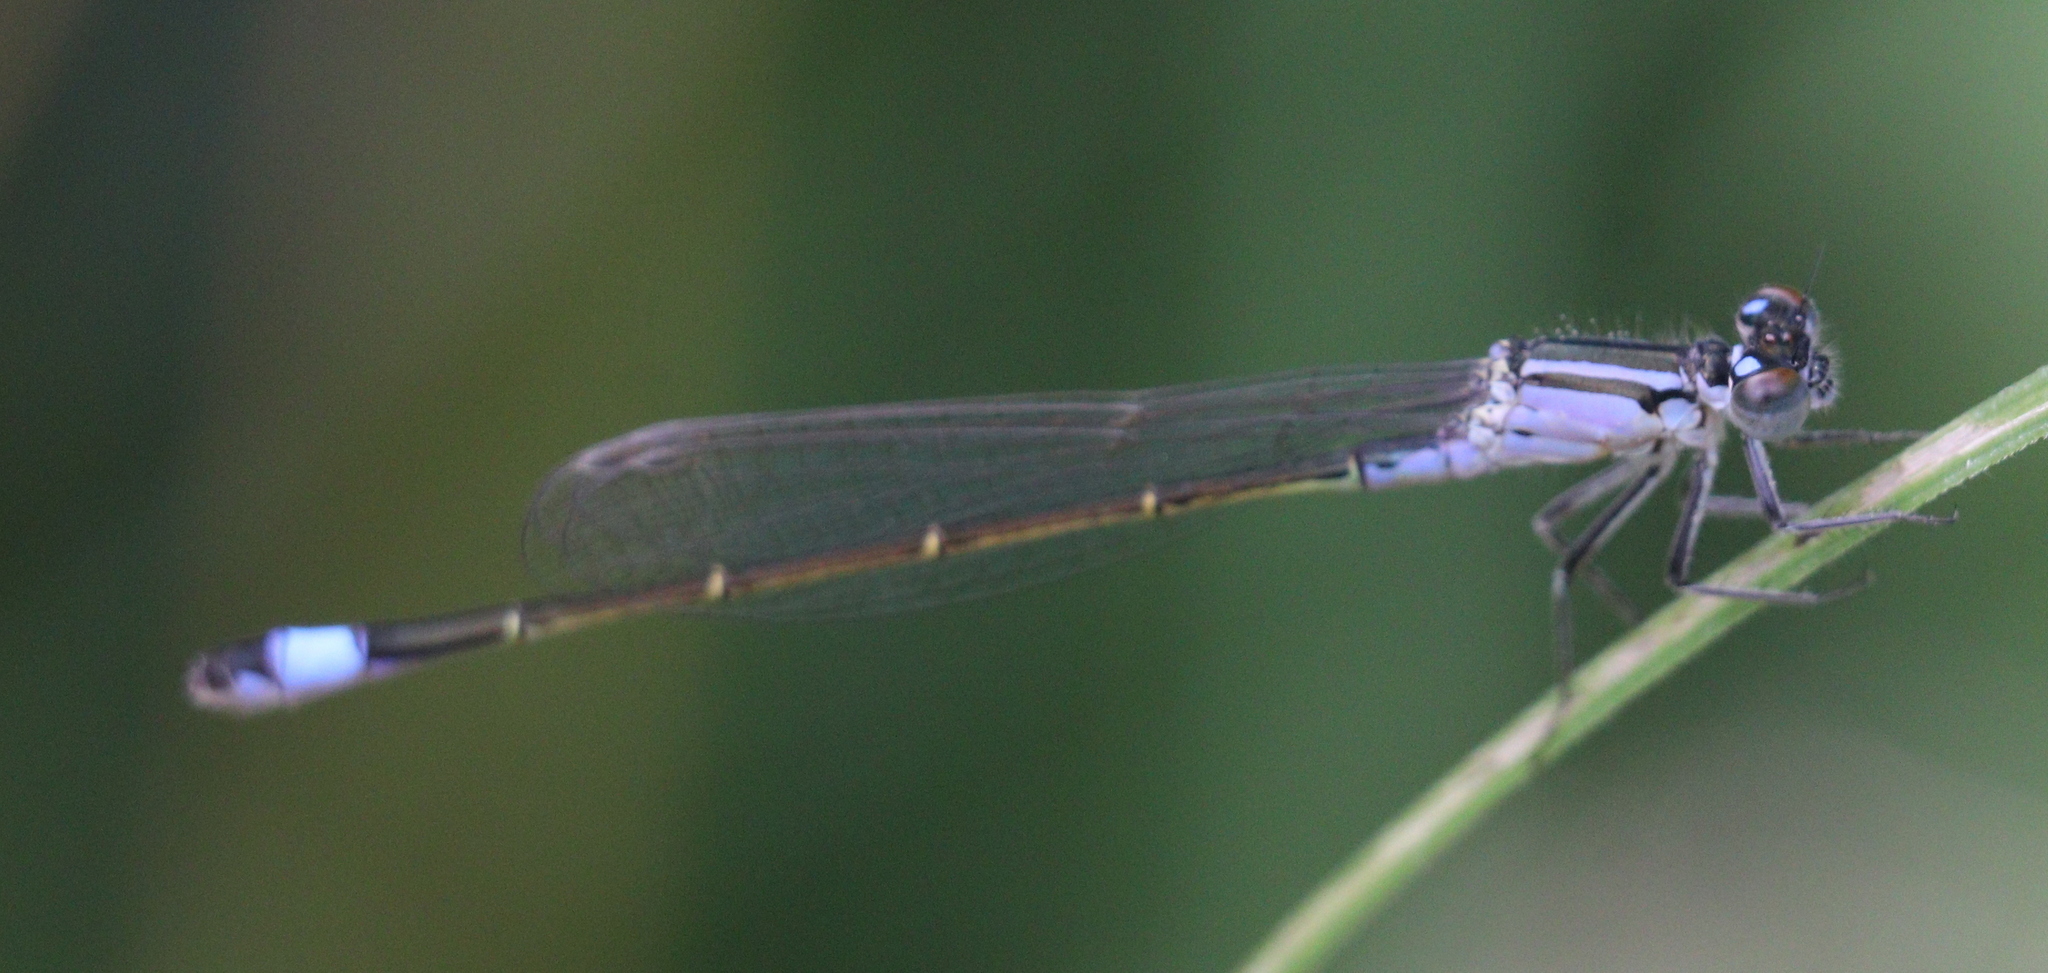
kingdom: Animalia
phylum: Arthropoda
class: Insecta
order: Odonata
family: Coenagrionidae
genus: Ischnura
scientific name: Ischnura elegans
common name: Blue-tailed damselfly
